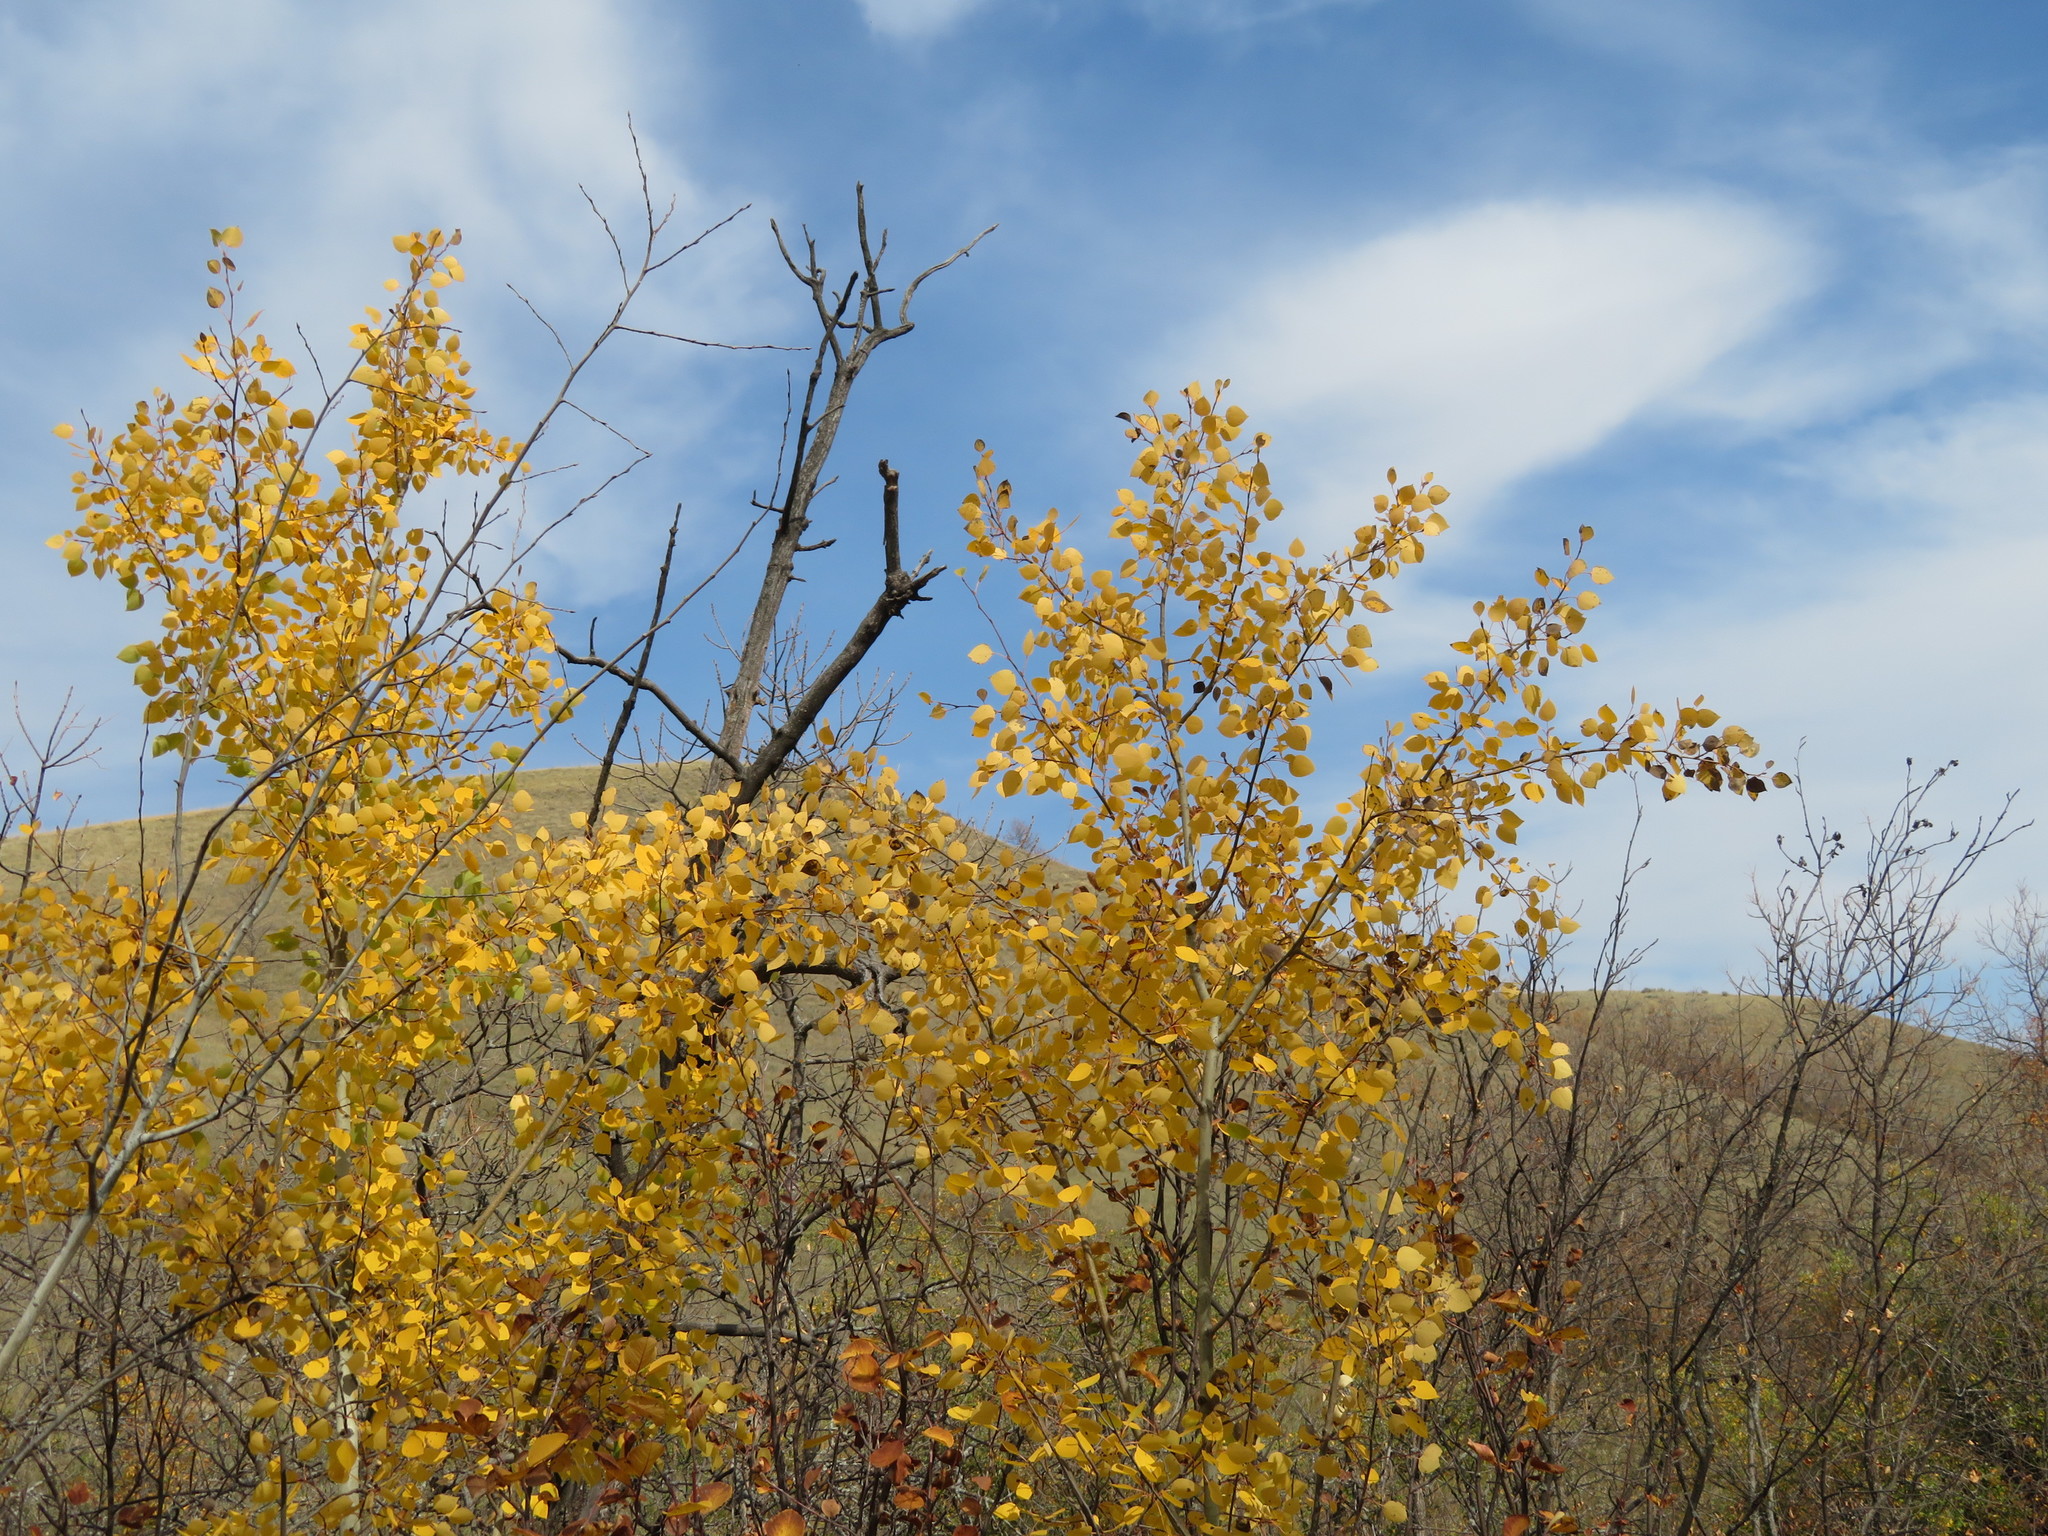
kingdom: Plantae
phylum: Tracheophyta
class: Magnoliopsida
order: Malpighiales
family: Salicaceae
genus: Populus
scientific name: Populus tremuloides
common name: Quaking aspen
